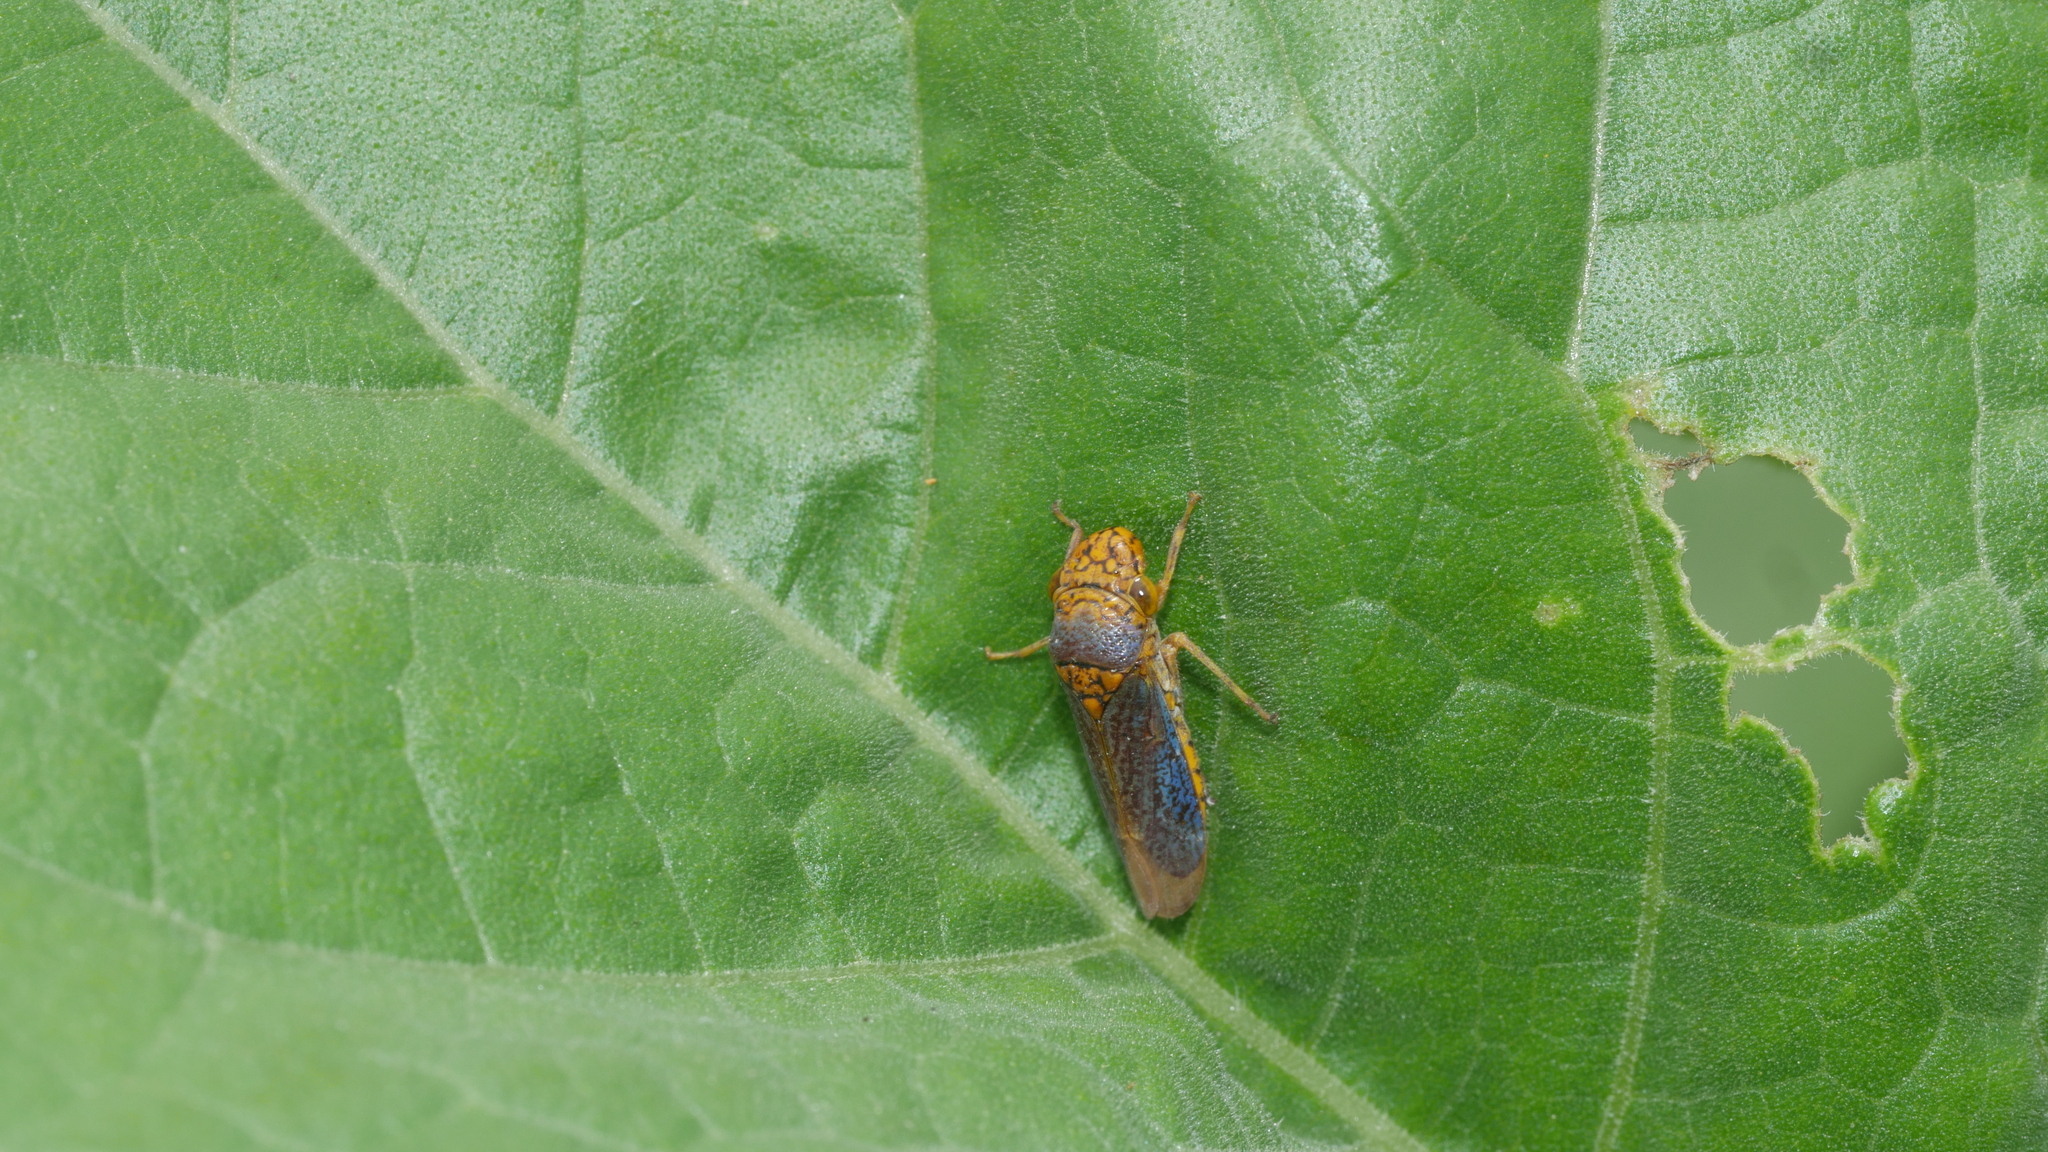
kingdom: Animalia
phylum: Arthropoda
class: Insecta
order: Hemiptera
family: Cicadellidae
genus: Oncometopia
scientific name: Oncometopia orbona
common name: Broad-headed sharpshooter
